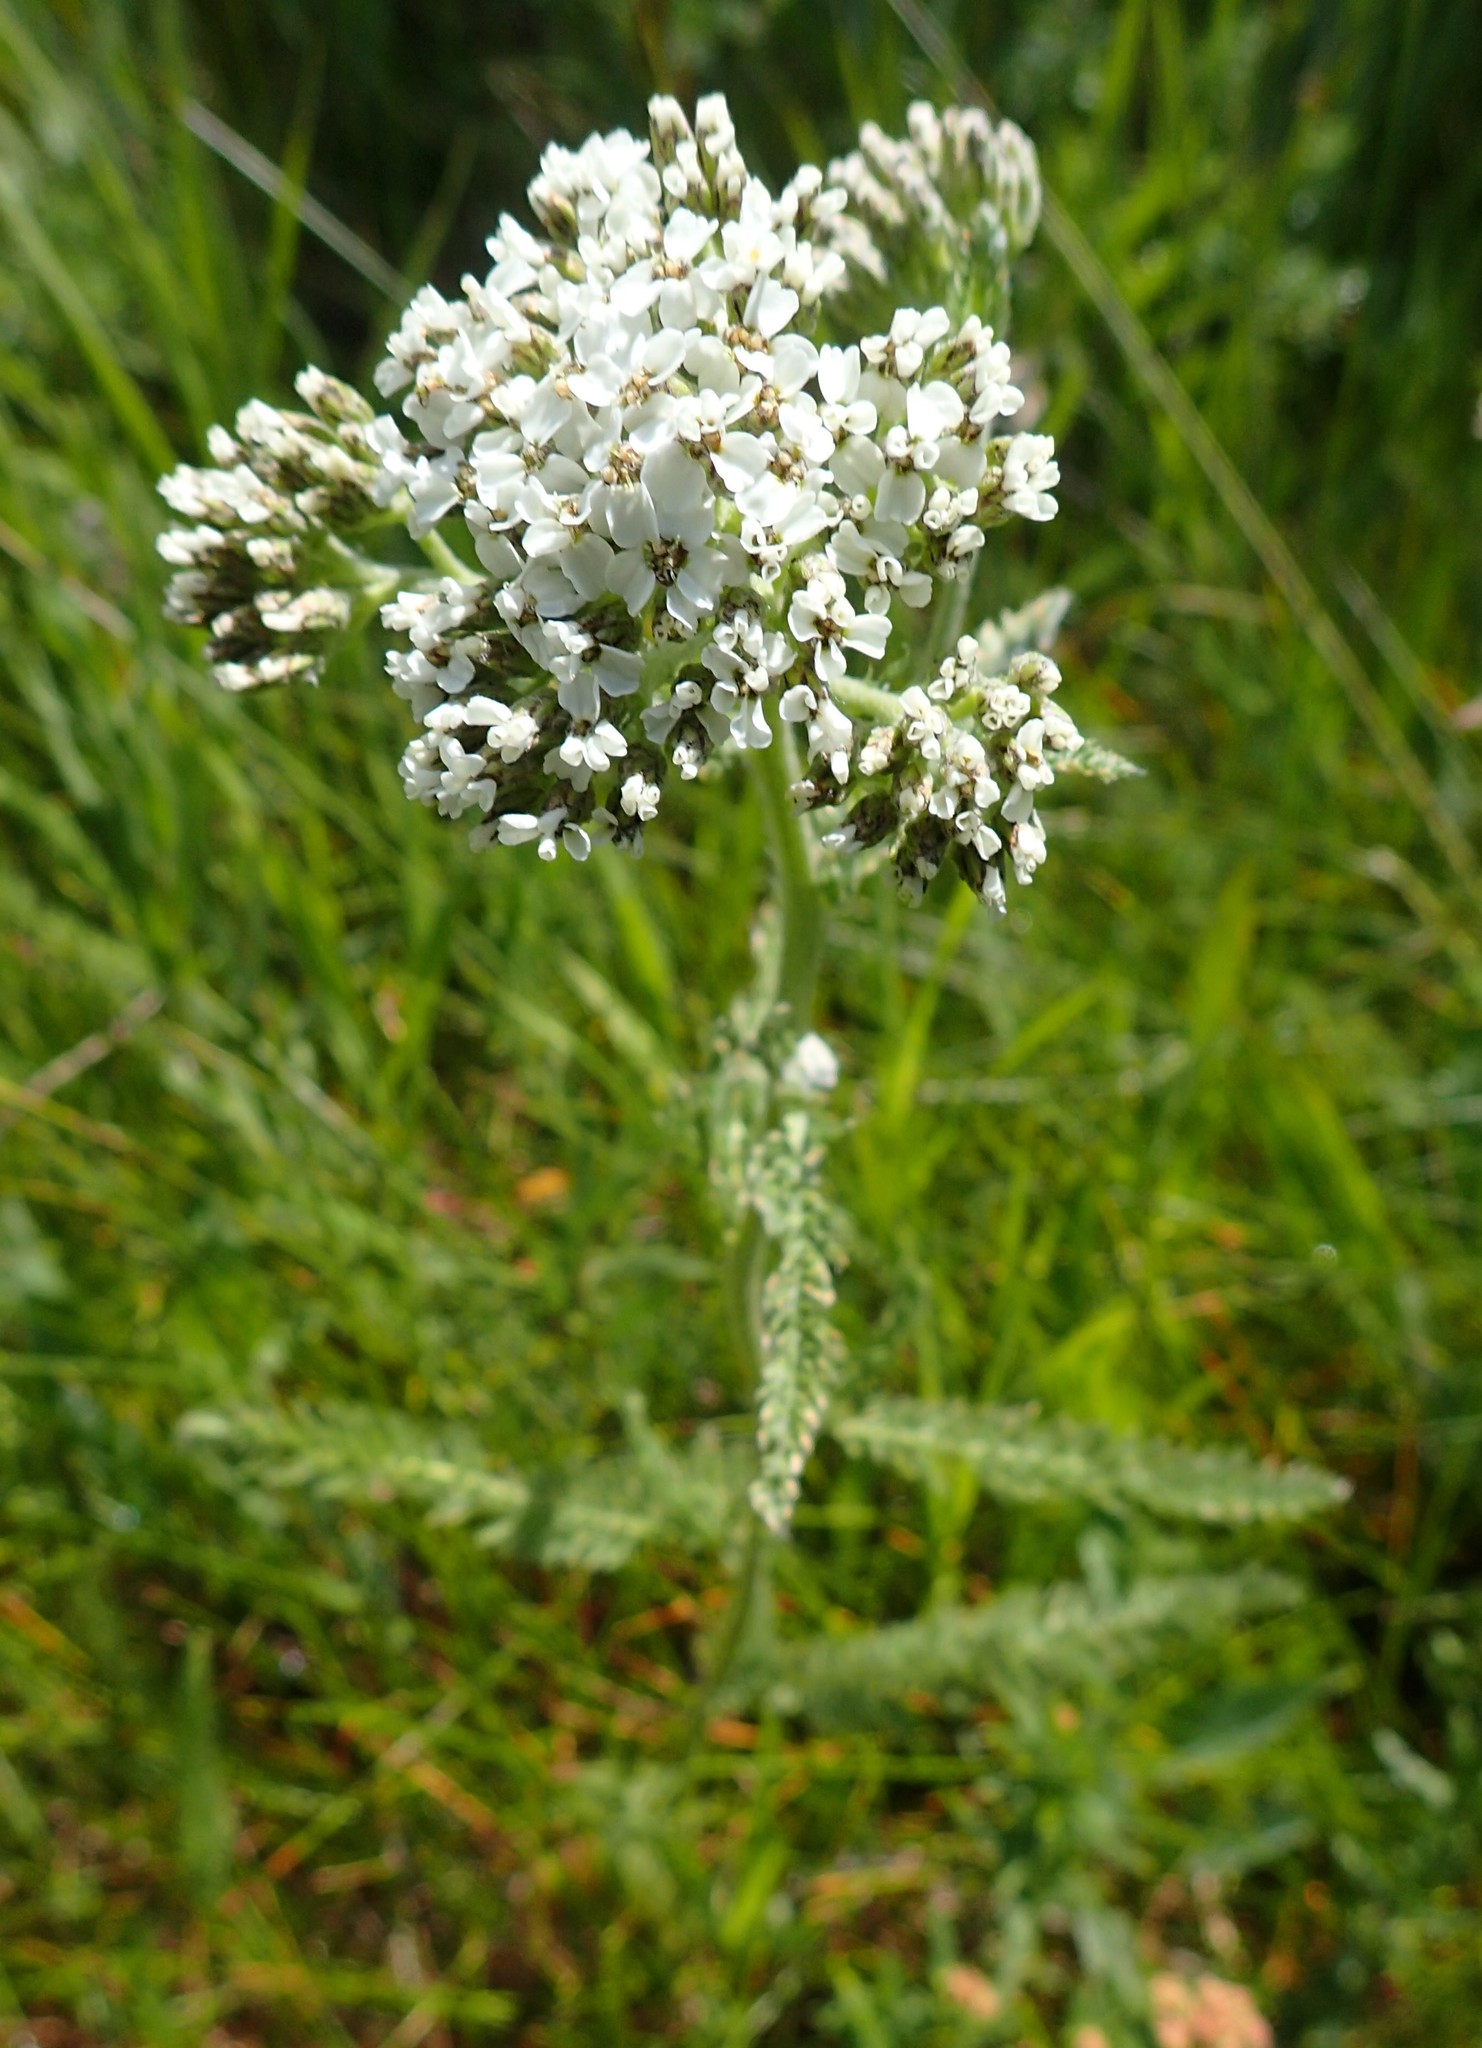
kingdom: Plantae
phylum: Tracheophyta
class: Magnoliopsida
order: Asterales
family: Asteraceae
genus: Achillea
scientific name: Achillea millefolium
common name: Yarrow
